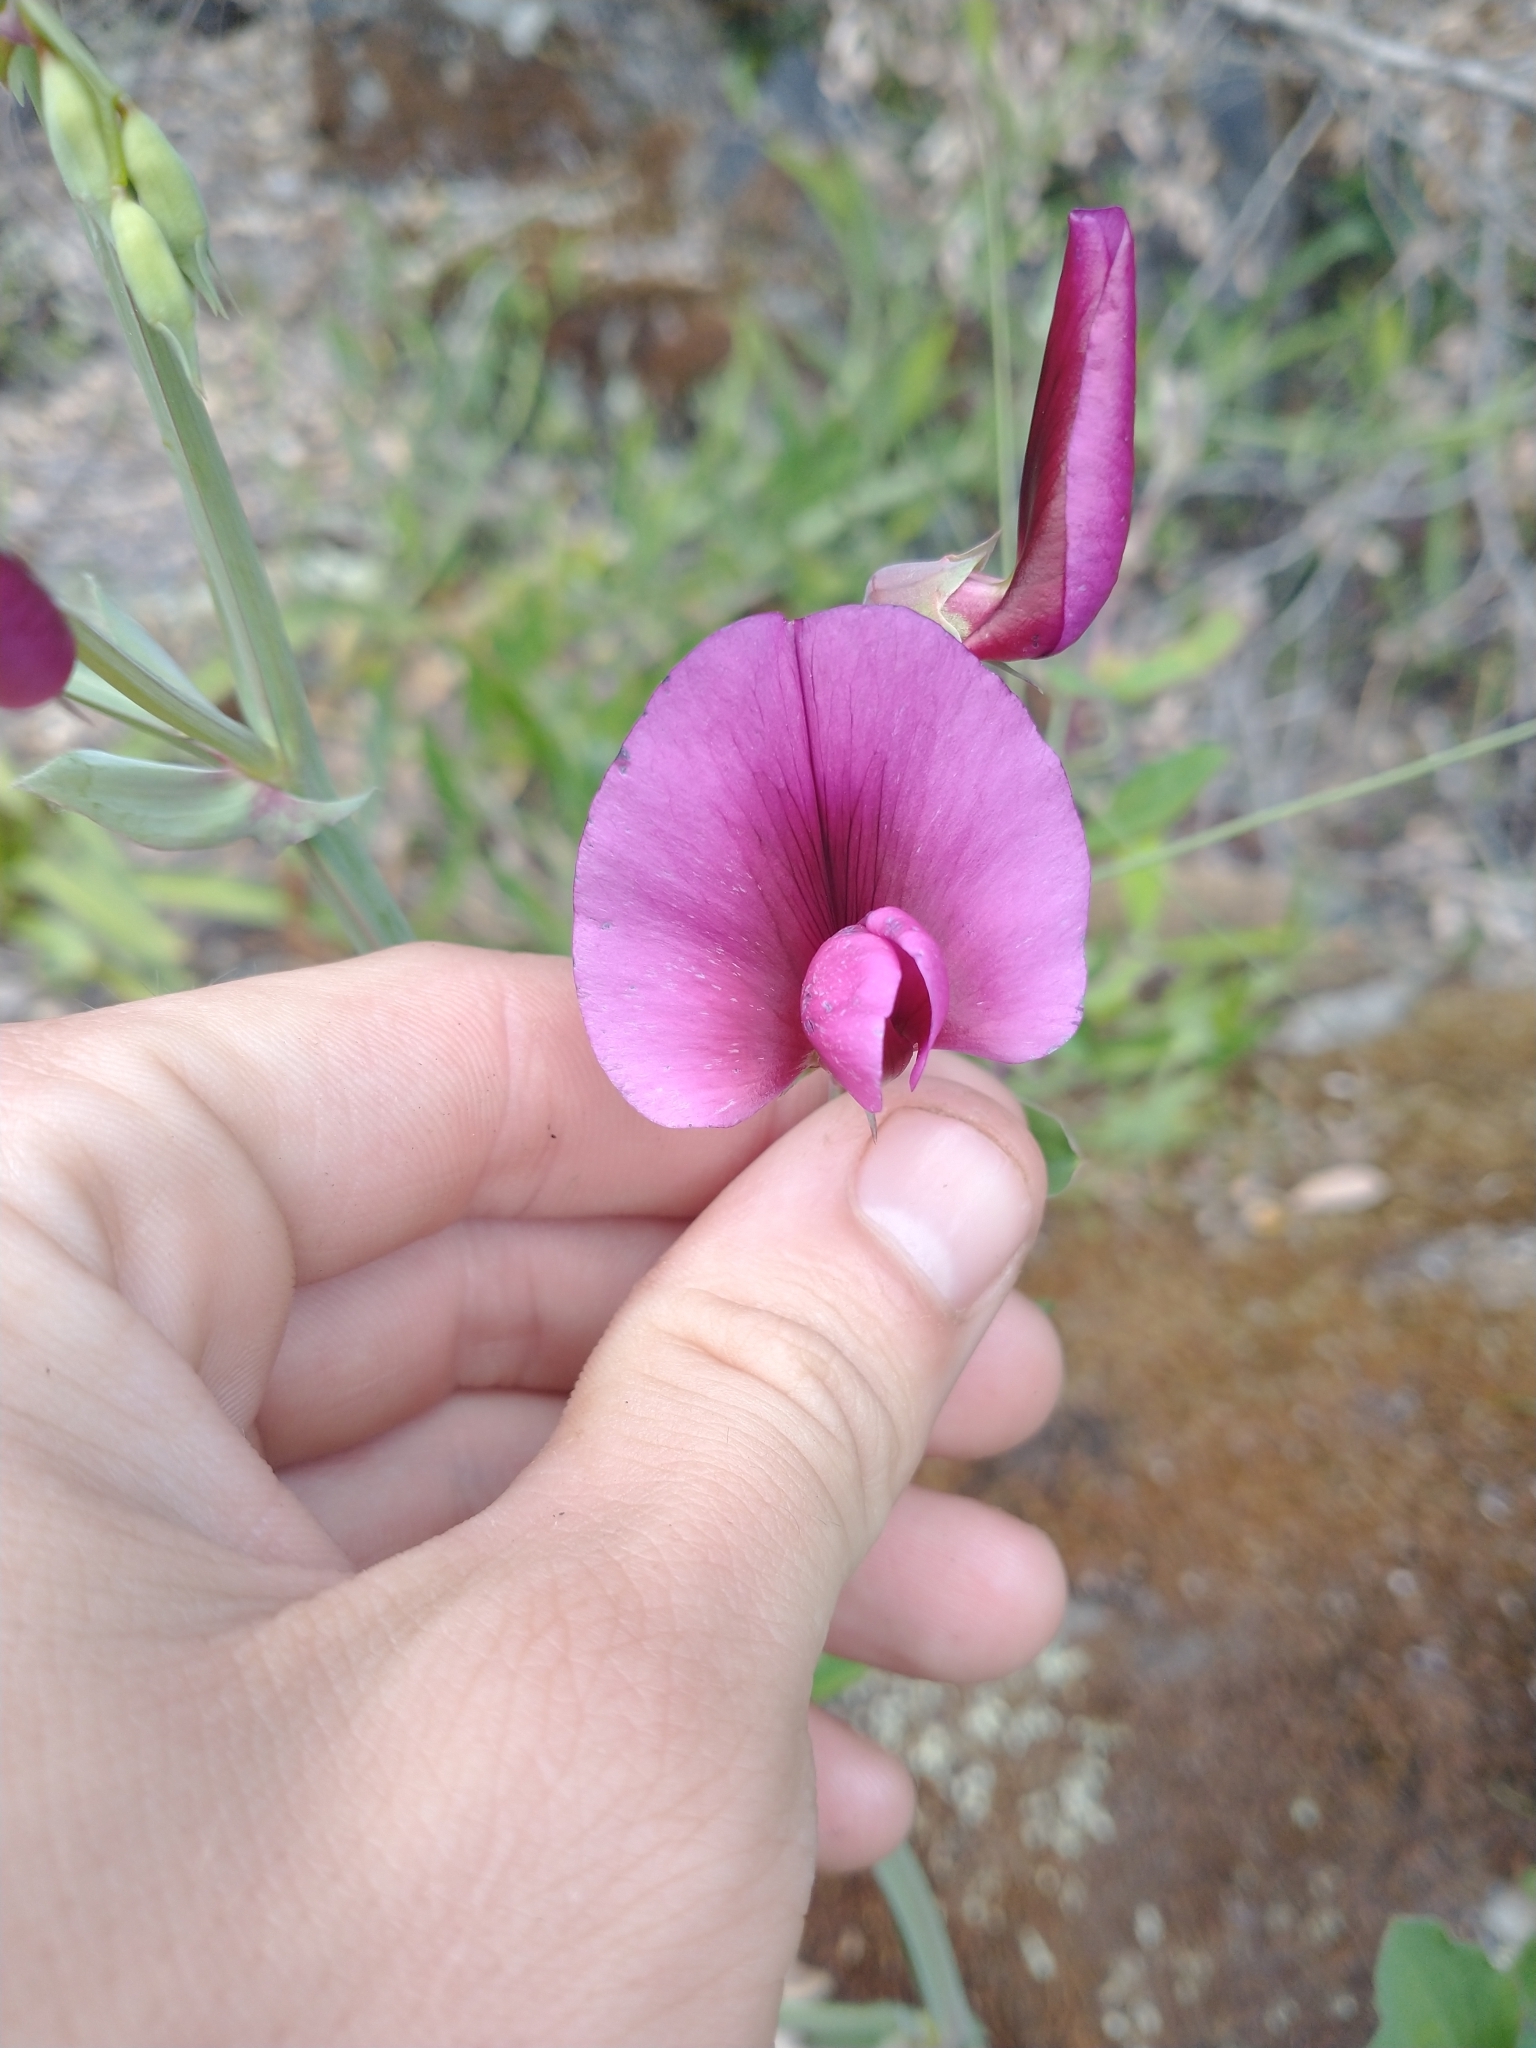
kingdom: Plantae
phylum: Tracheophyta
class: Magnoliopsida
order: Fabales
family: Fabaceae
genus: Lathyrus
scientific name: Lathyrus tingitanus
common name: Tangier pea
